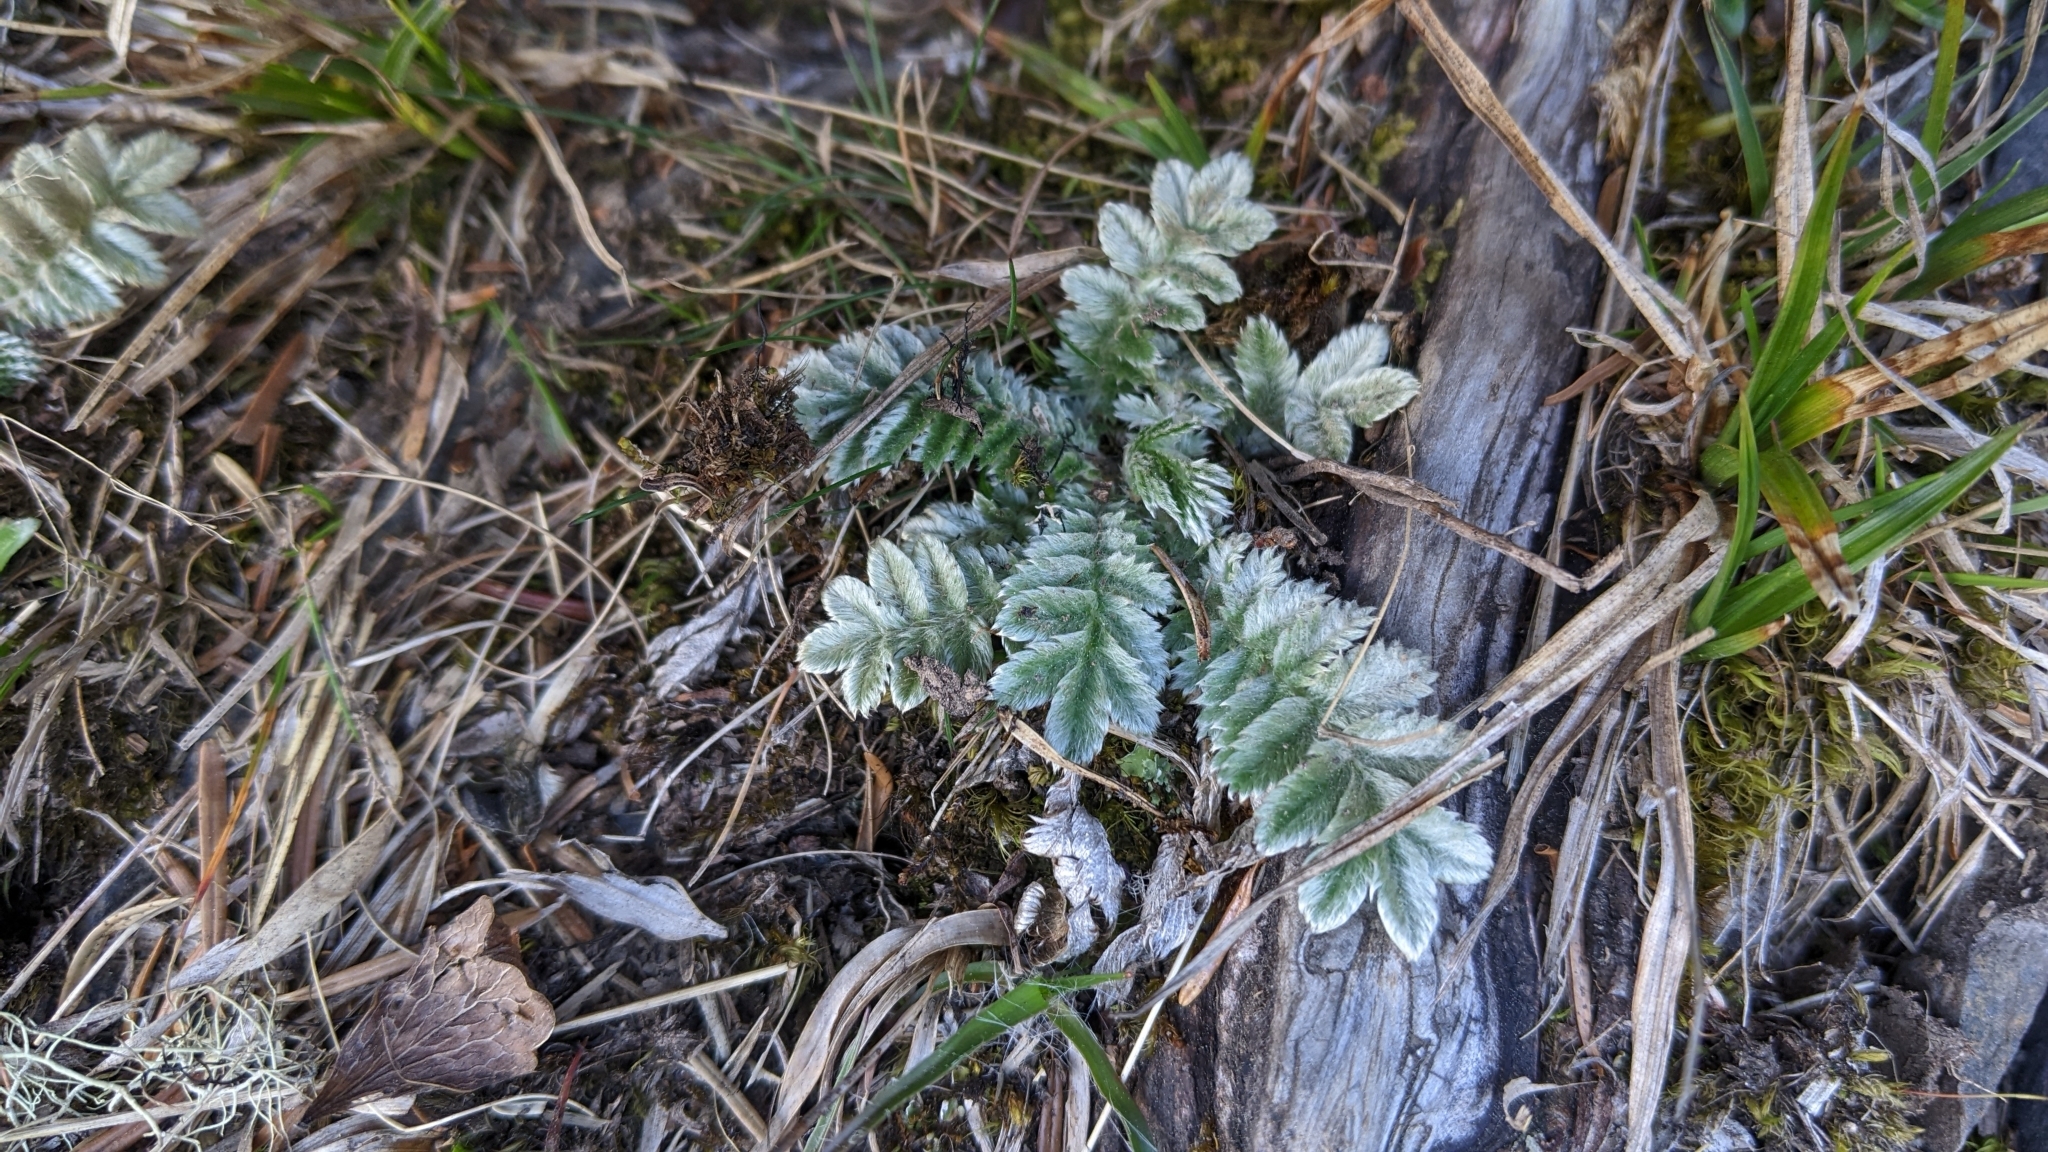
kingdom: Plantae
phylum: Tracheophyta
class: Magnoliopsida
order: Rosales
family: Rosaceae
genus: Argentina
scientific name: Argentina leuconota
